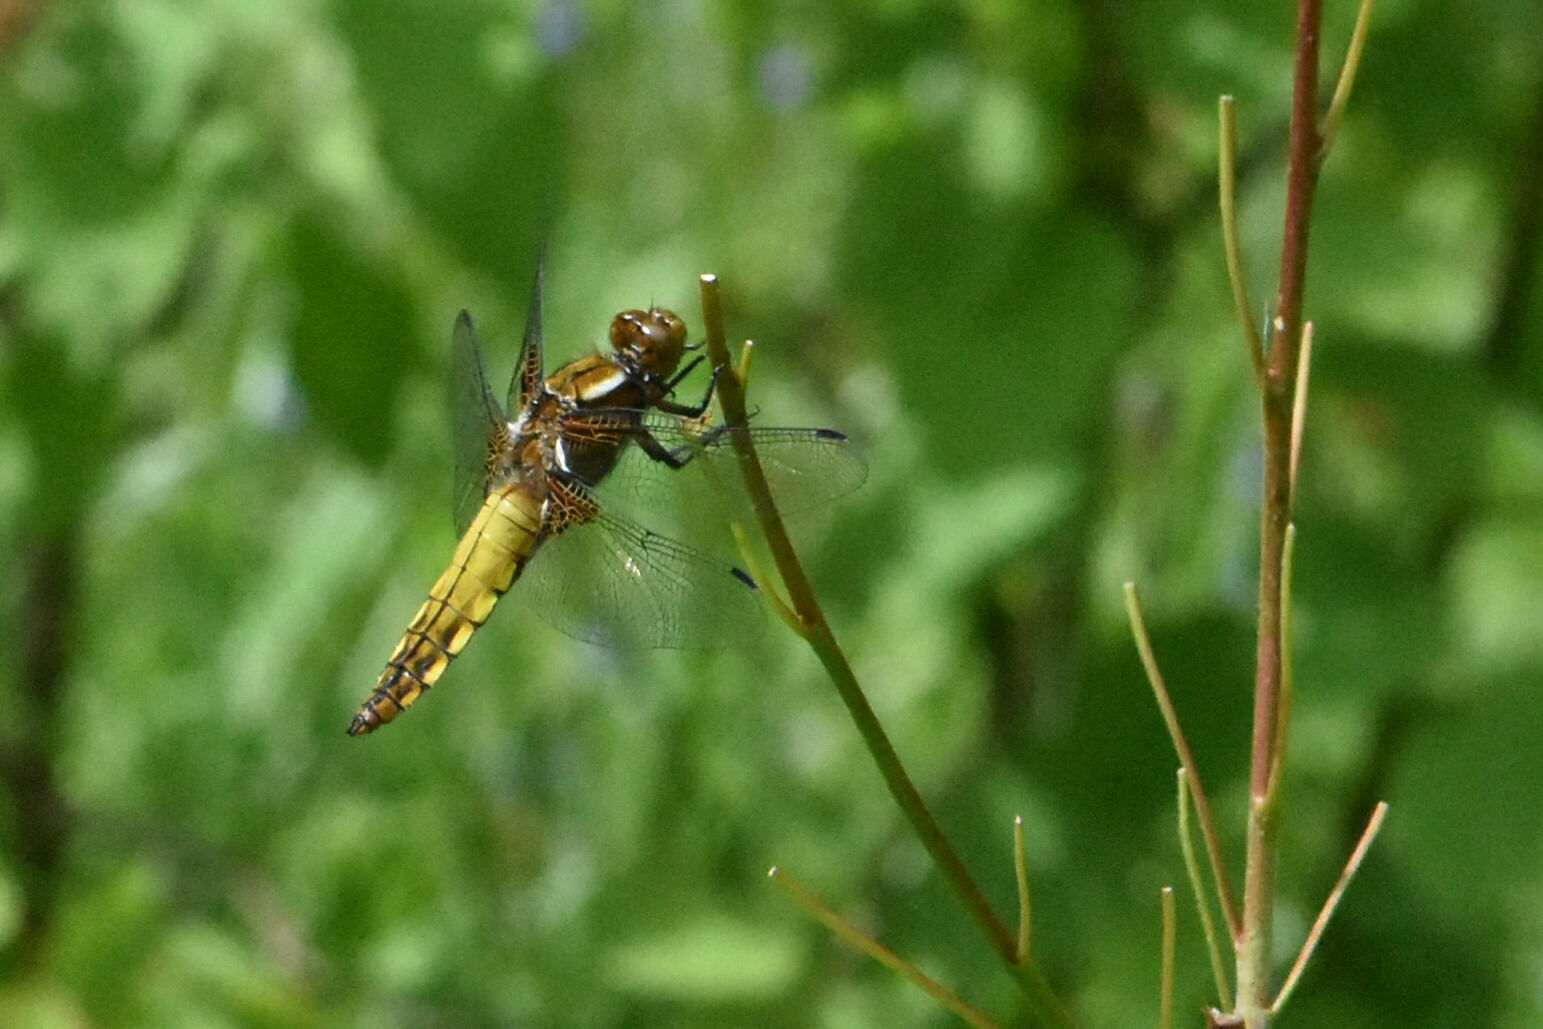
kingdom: Animalia
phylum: Arthropoda
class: Insecta
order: Odonata
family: Libellulidae
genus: Libellula
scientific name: Libellula depressa
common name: Broad-bodied chaser
